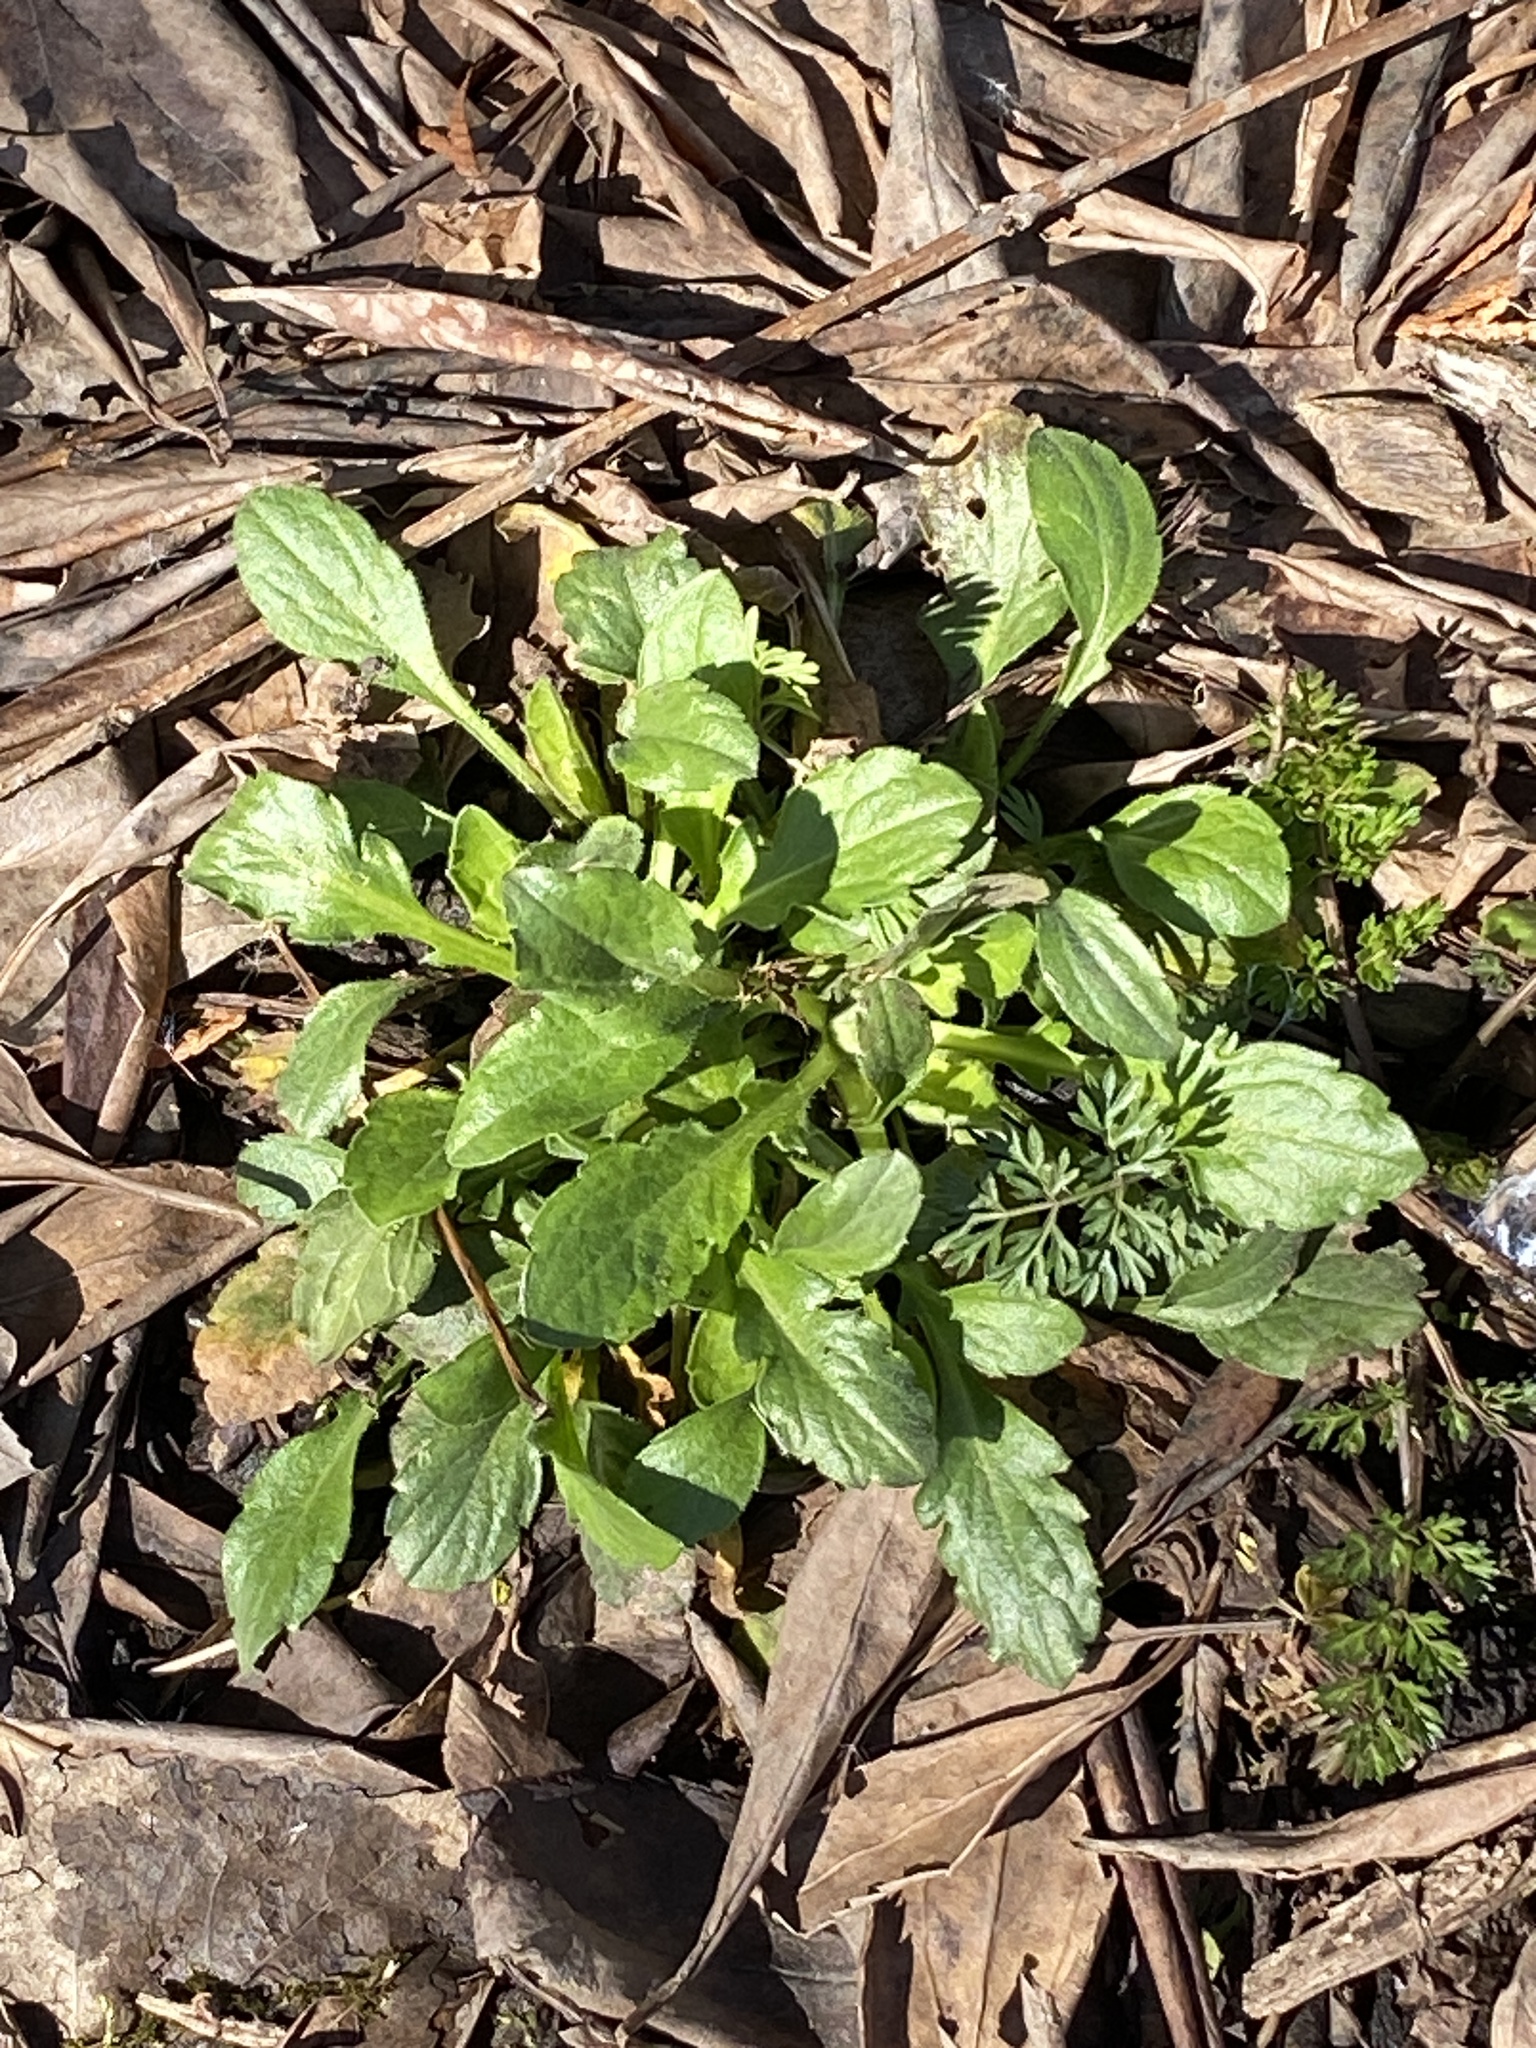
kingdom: Plantae
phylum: Tracheophyta
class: Magnoliopsida
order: Asterales
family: Asteraceae
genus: Erigeron
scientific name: Erigeron annuus
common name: Tall fleabane
